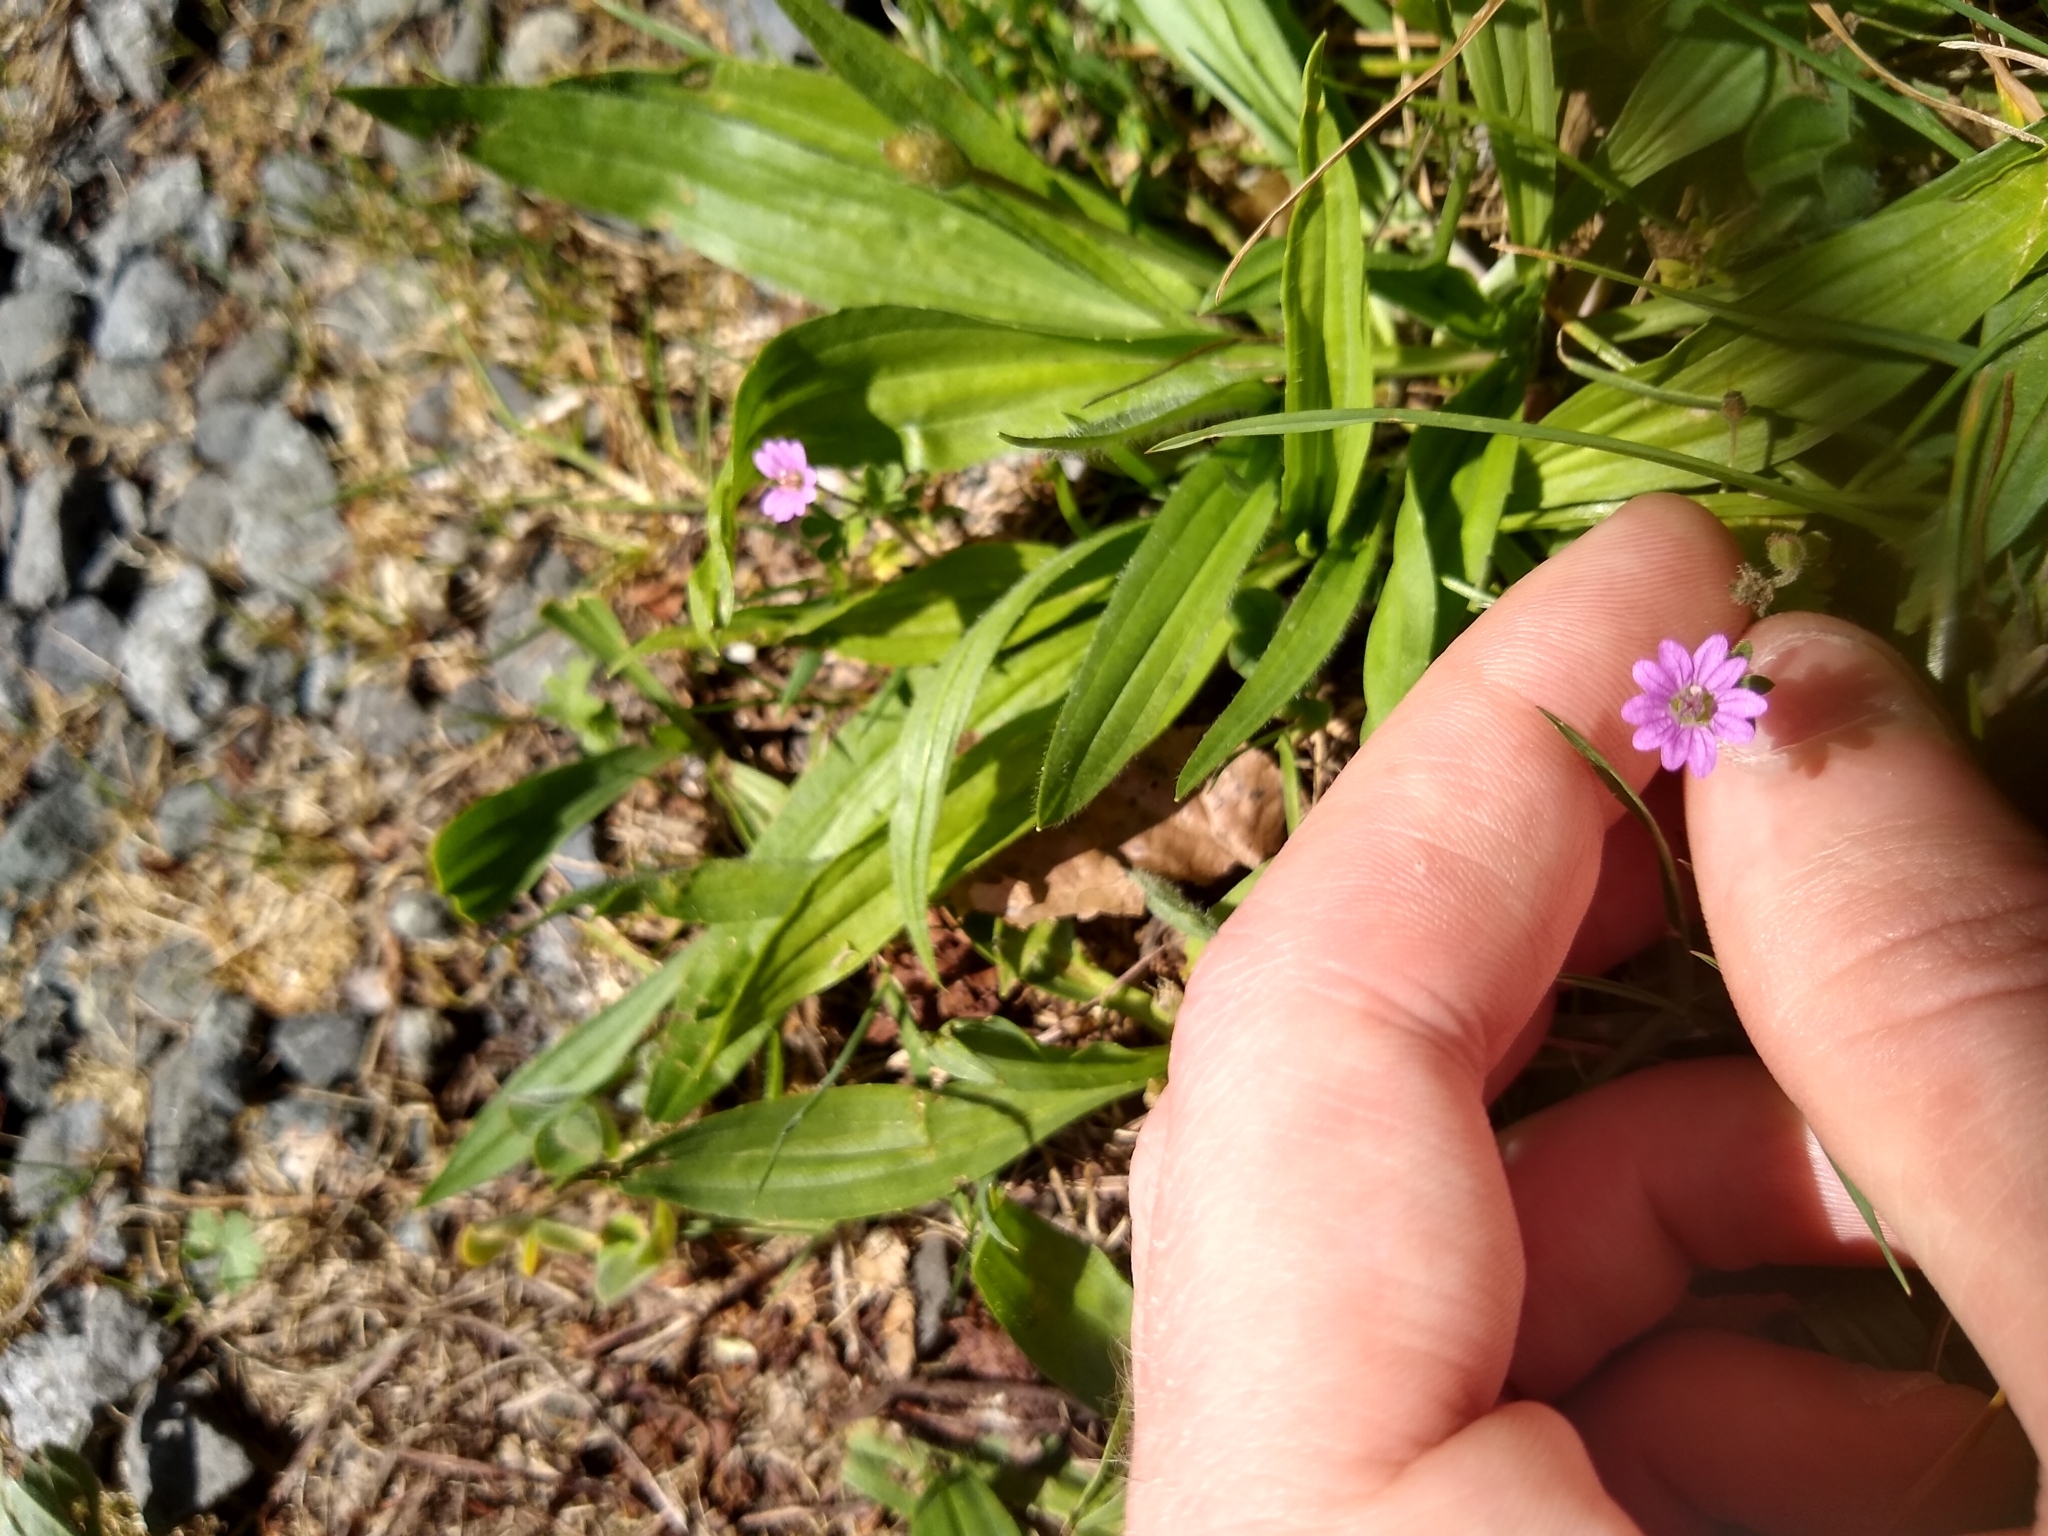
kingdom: Plantae
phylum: Tracheophyta
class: Magnoliopsida
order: Geraniales
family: Geraniaceae
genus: Geranium
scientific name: Geranium
